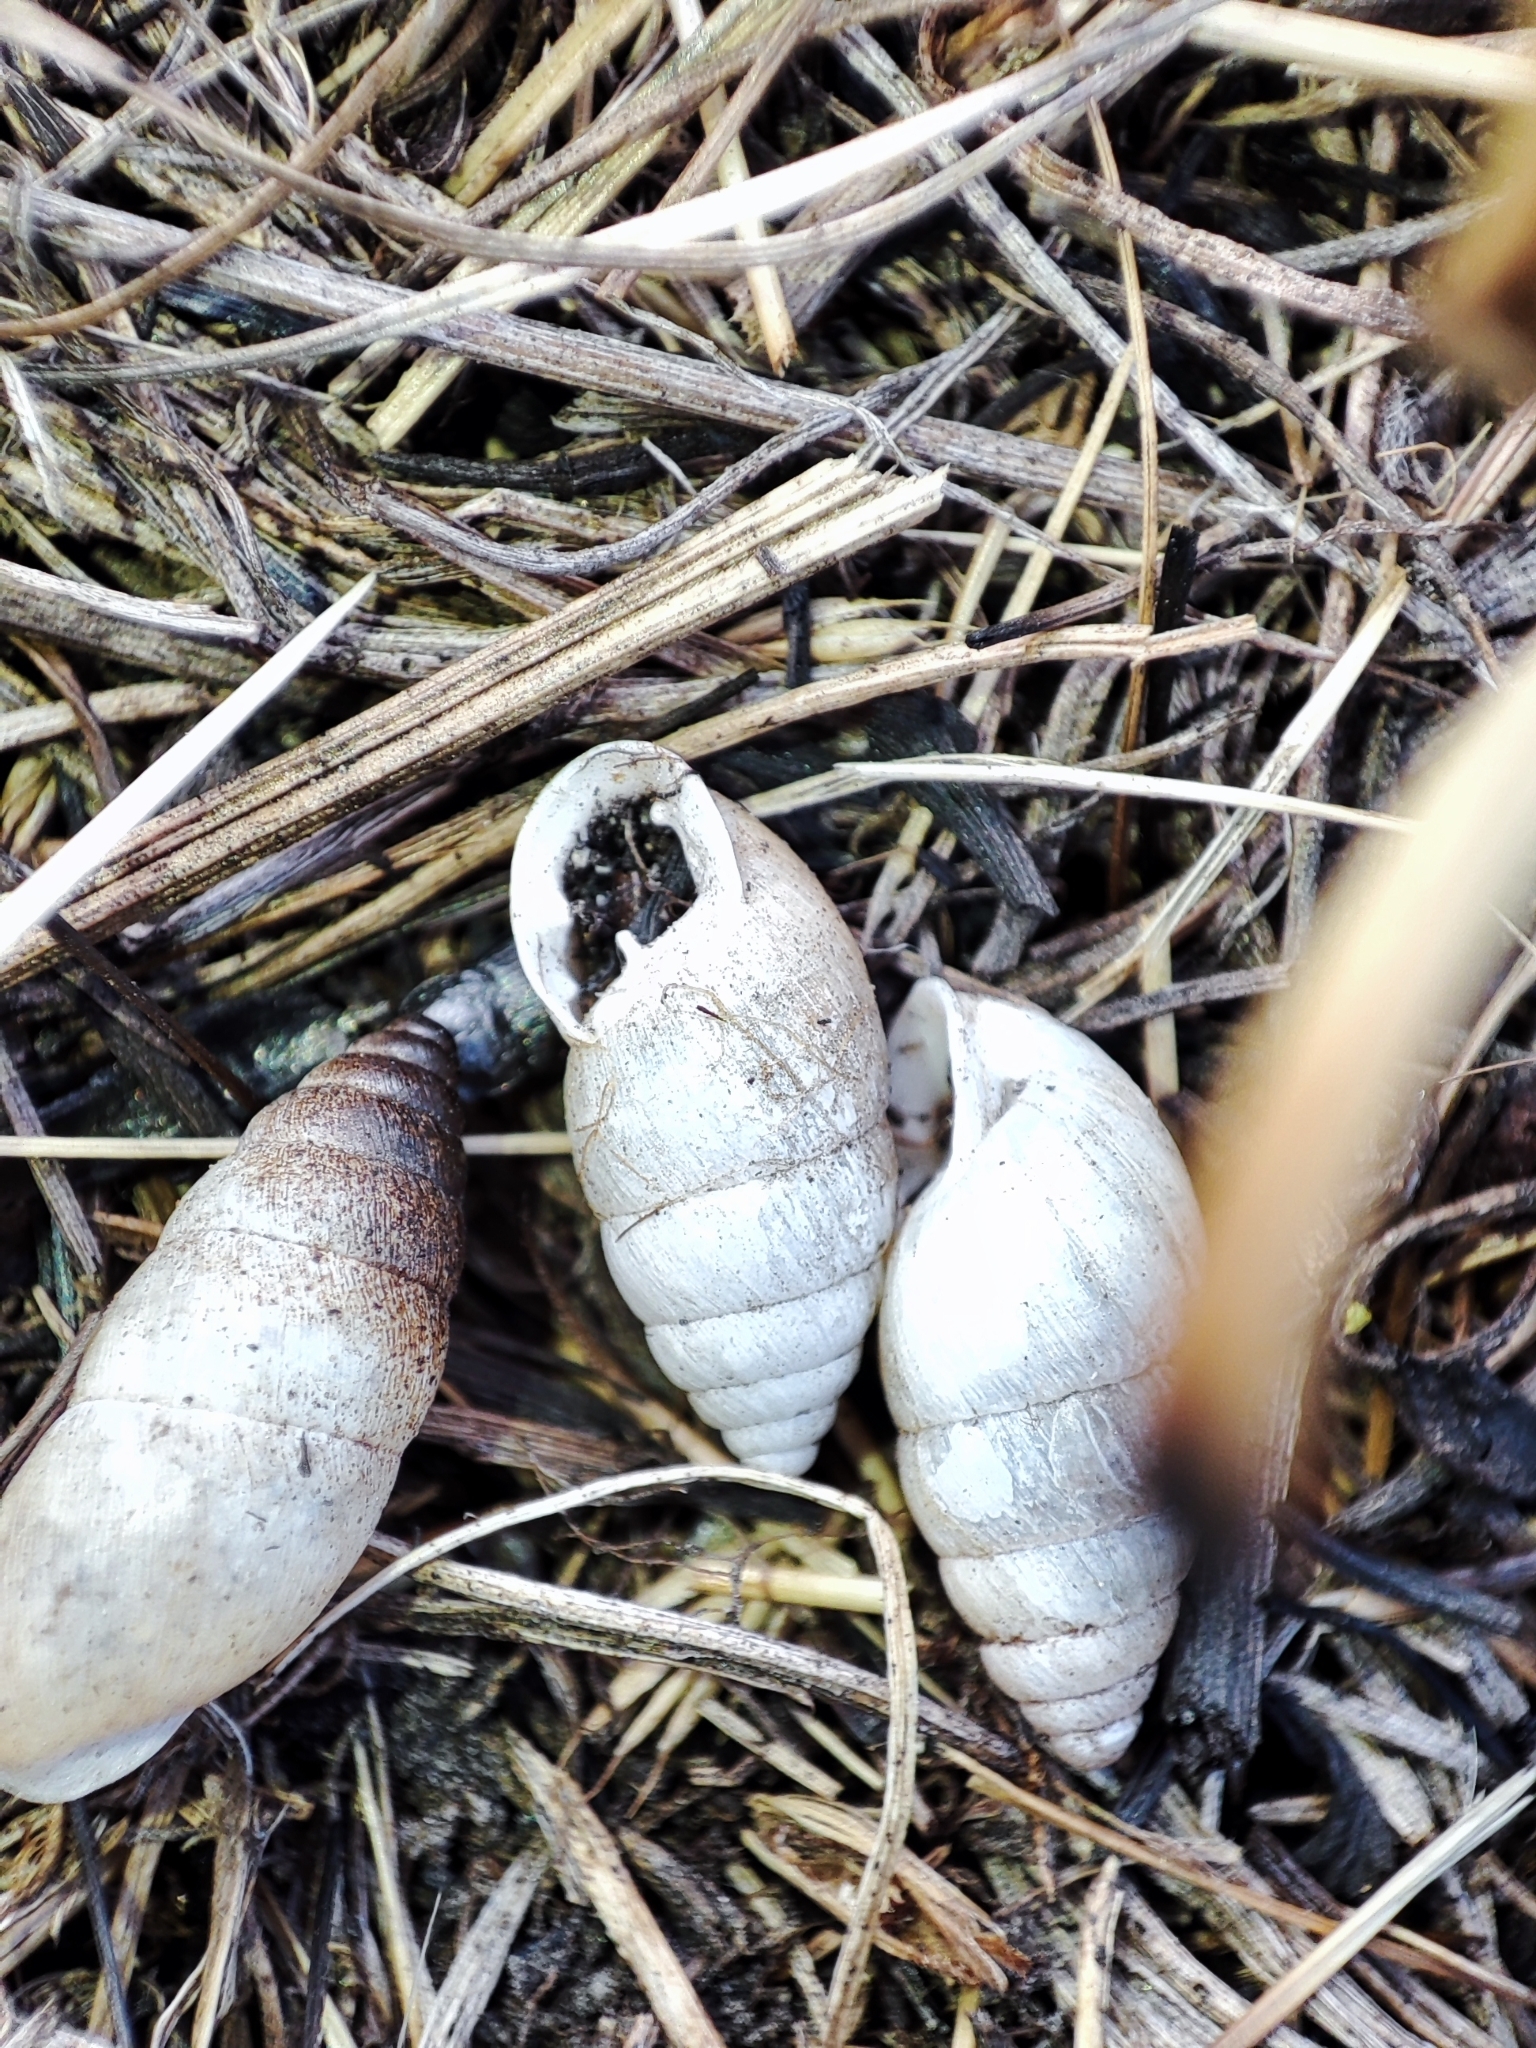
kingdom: Animalia
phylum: Mollusca
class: Gastropoda
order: Stylommatophora
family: Enidae
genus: Chondrula
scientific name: Chondrula tridens
